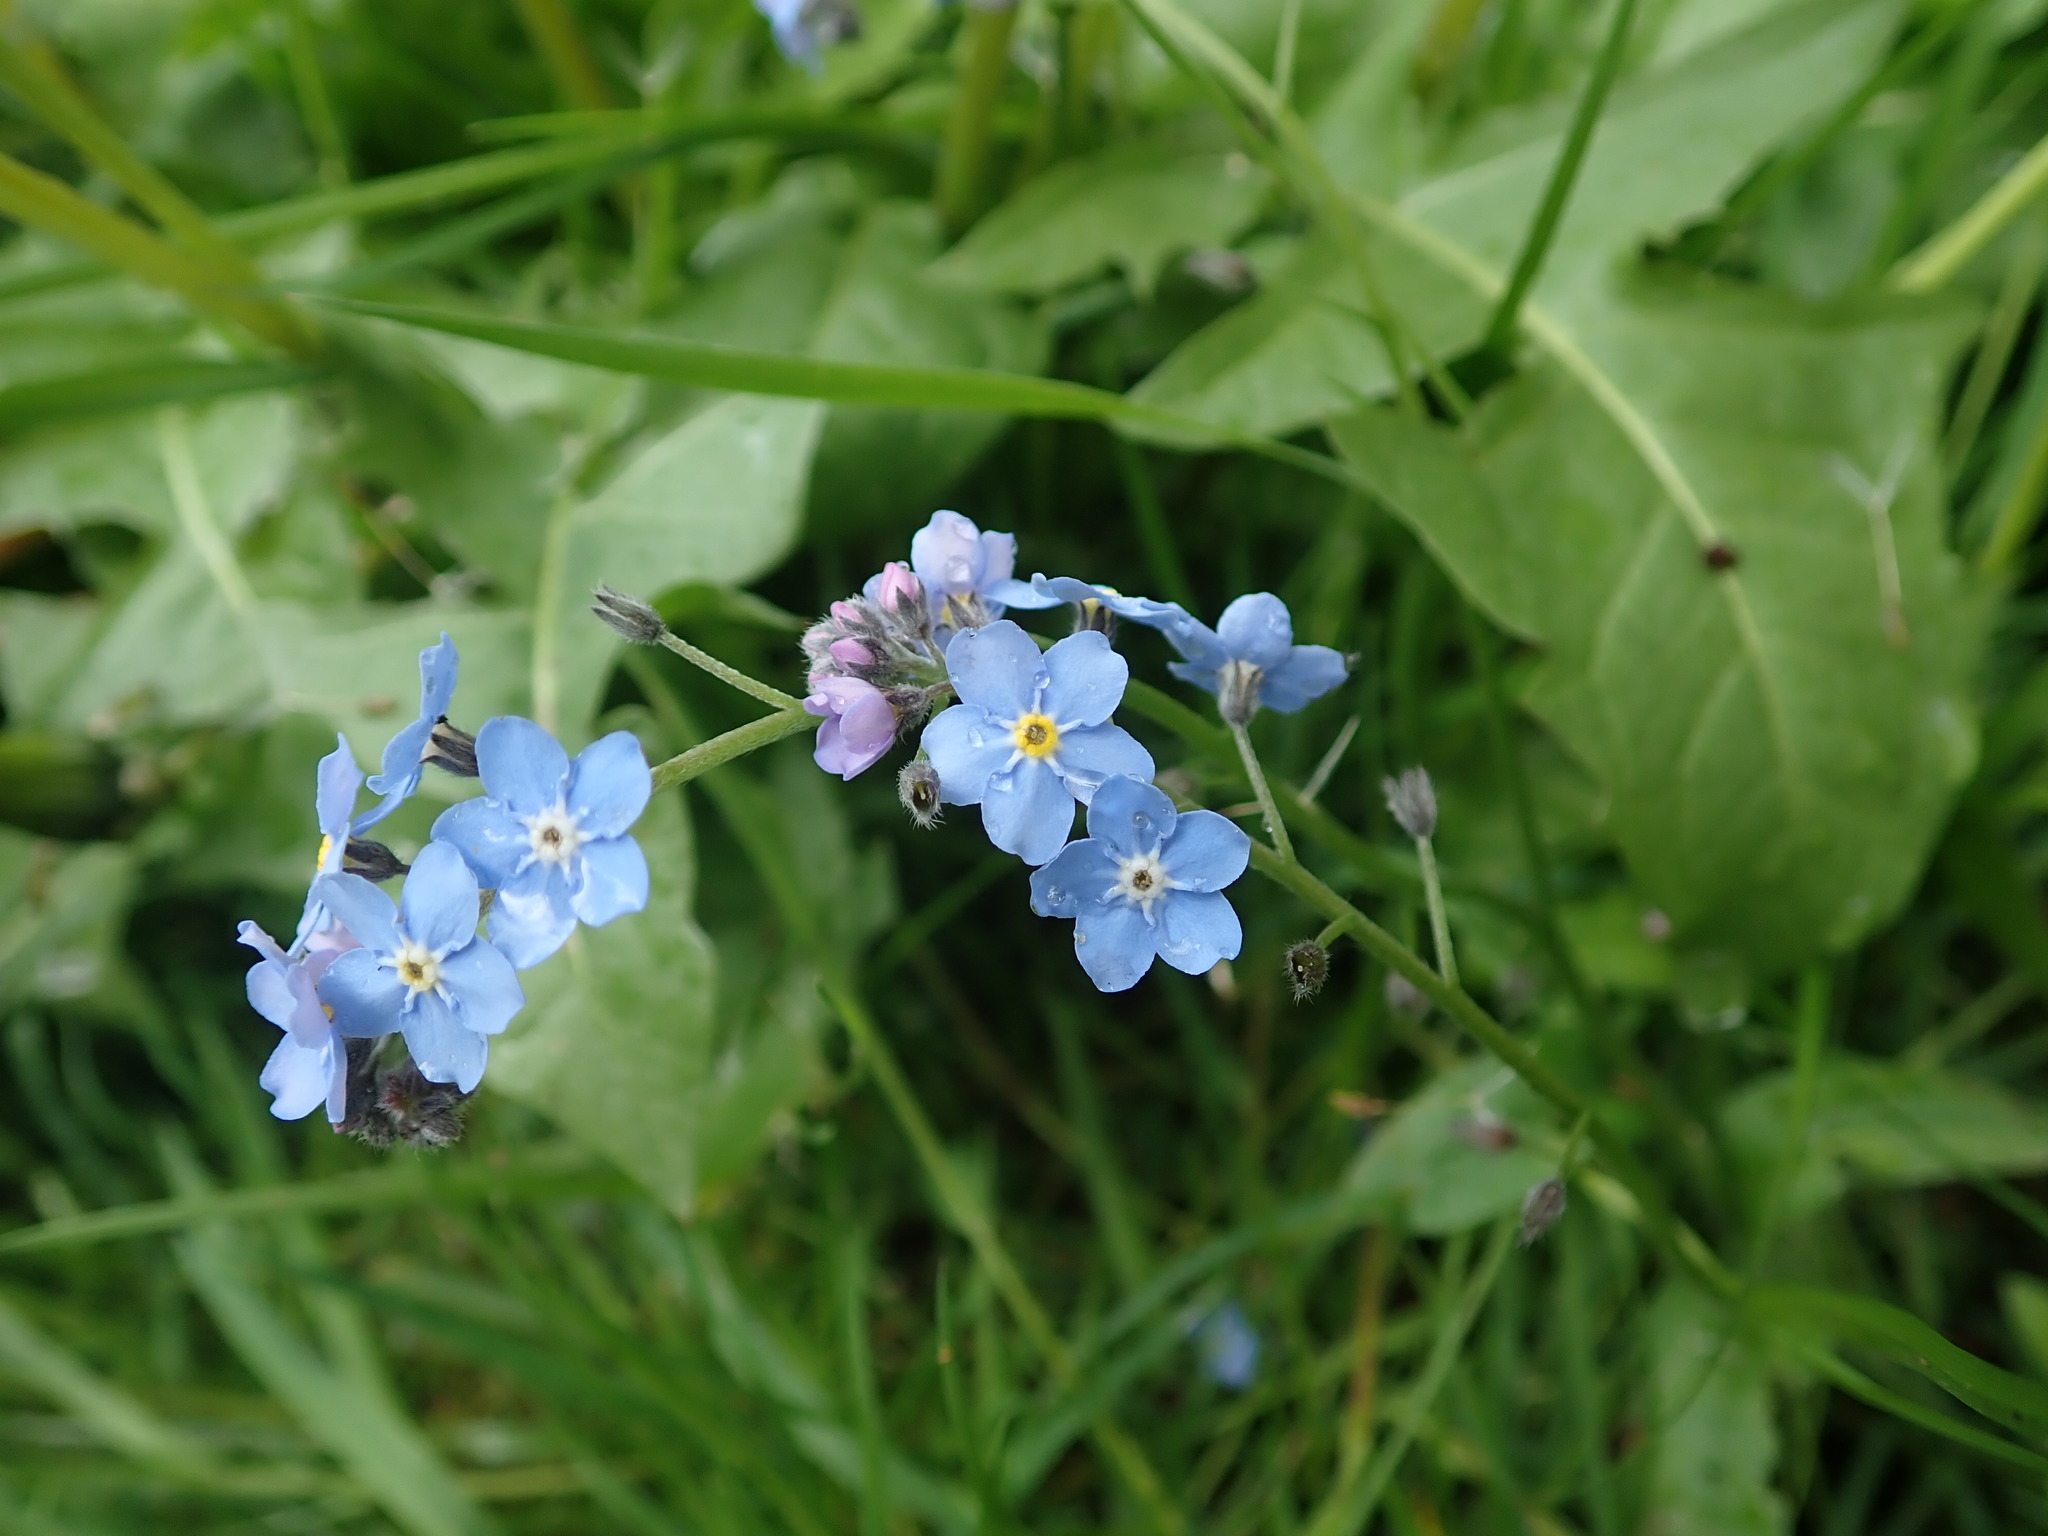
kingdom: Plantae
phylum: Tracheophyta
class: Magnoliopsida
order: Boraginales
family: Boraginaceae
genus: Myosotis
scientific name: Myosotis sylvatica
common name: Wood forget-me-not
